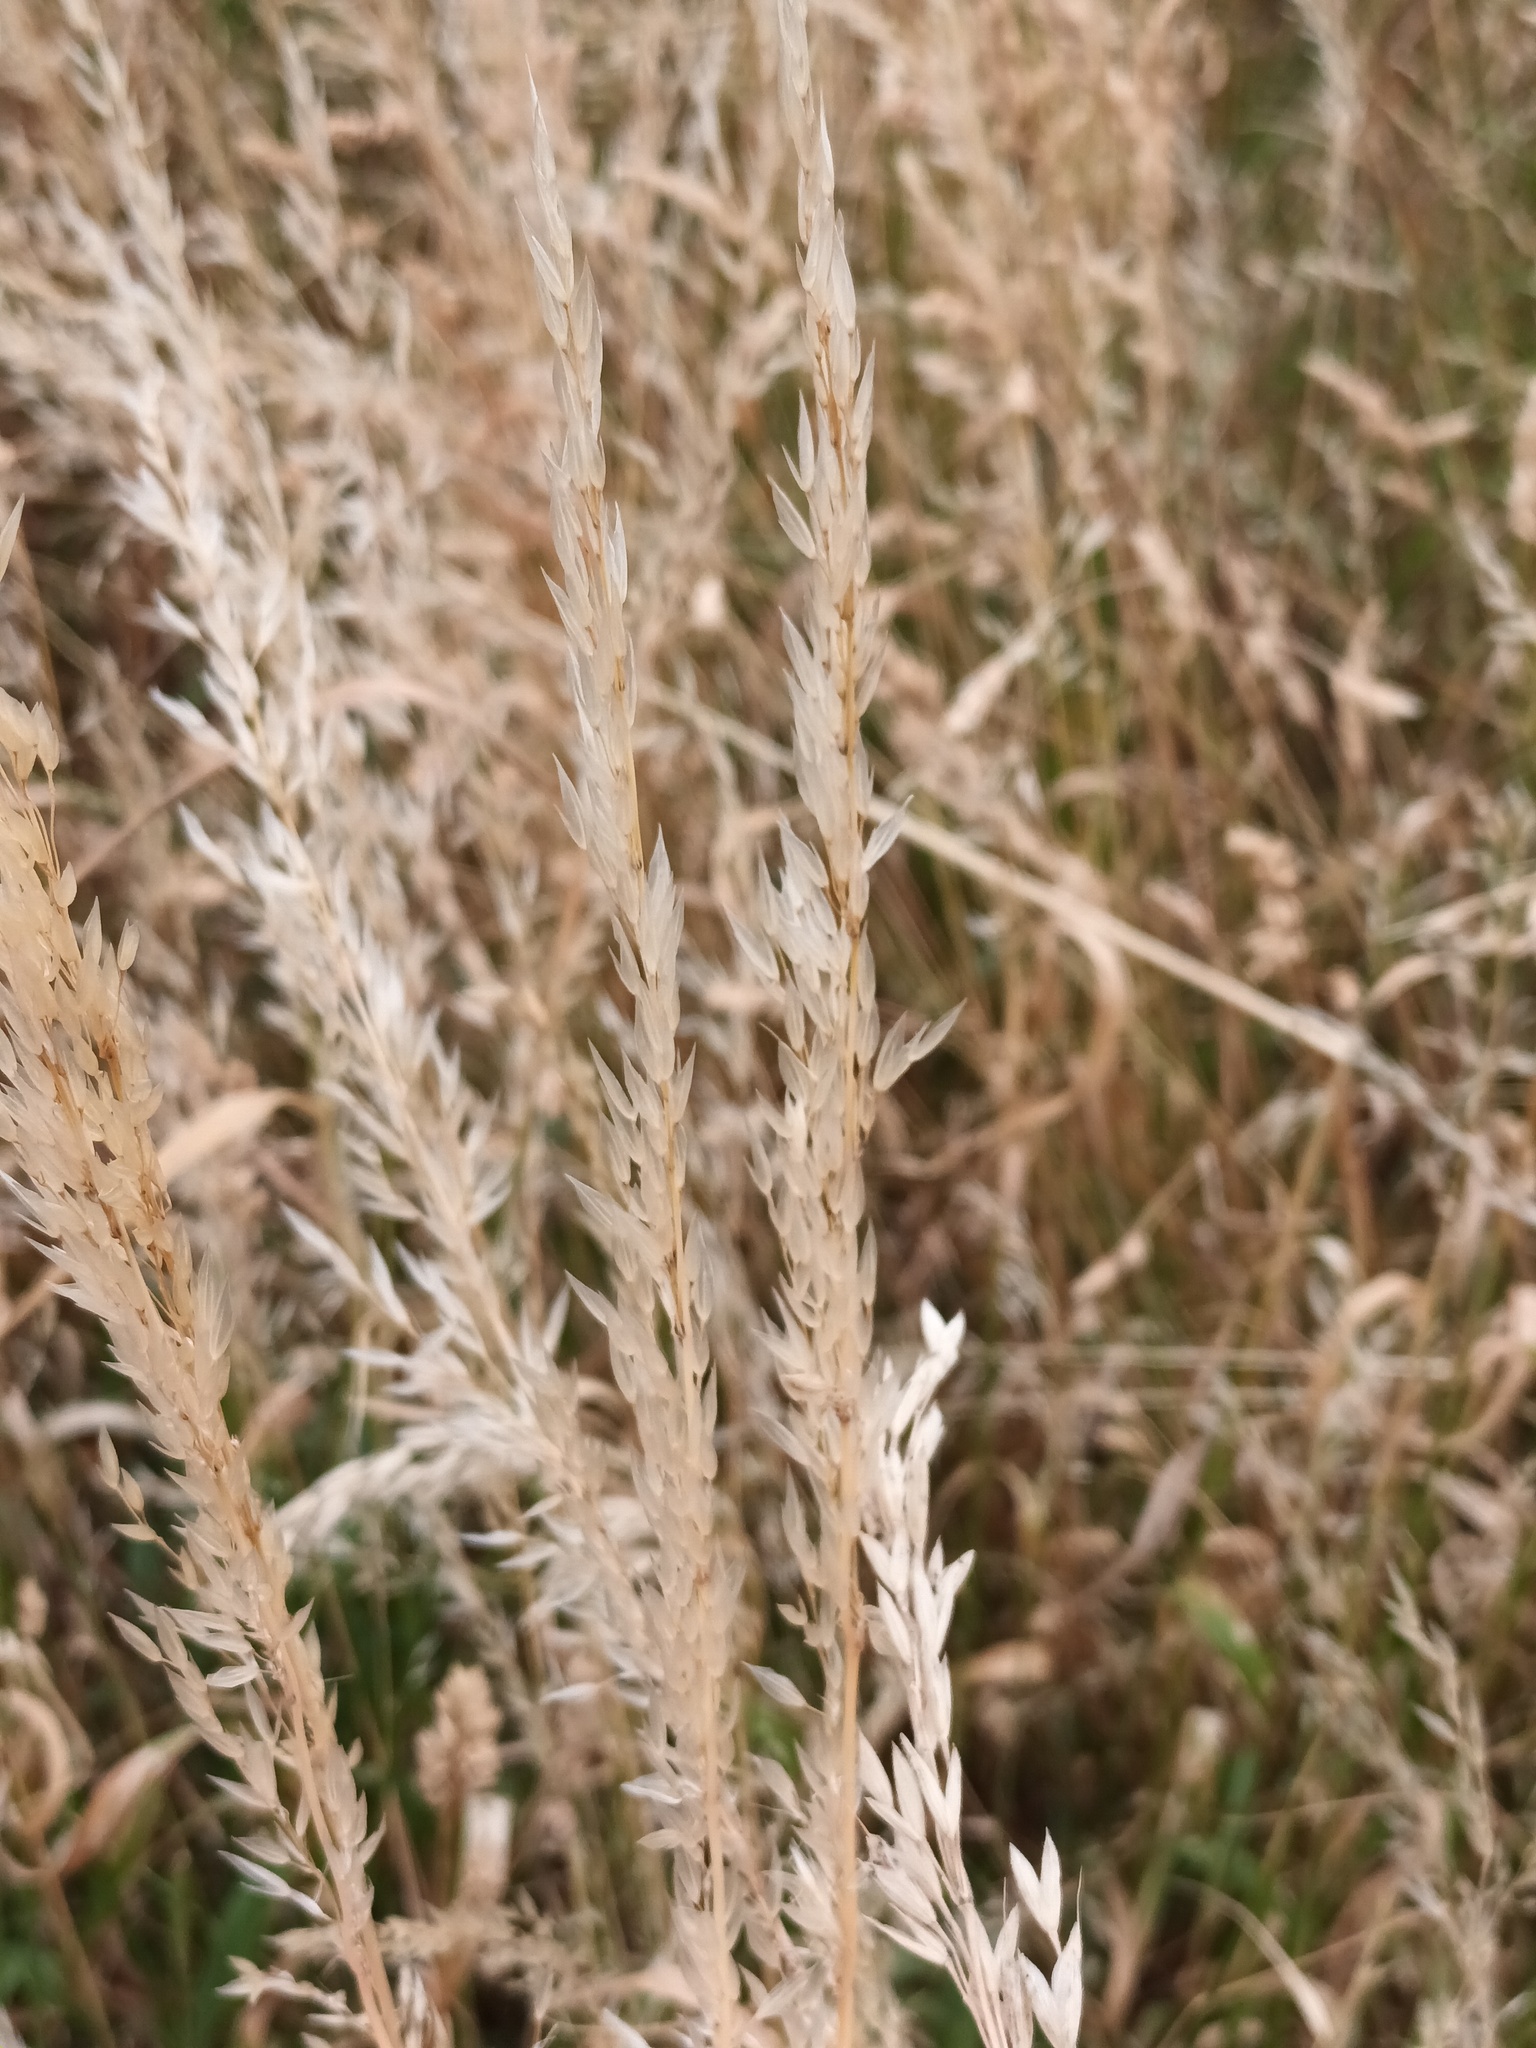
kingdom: Plantae
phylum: Tracheophyta
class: Liliopsida
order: Poales
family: Poaceae
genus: Arrhenatherum
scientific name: Arrhenatherum elatius
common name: Tall oatgrass
